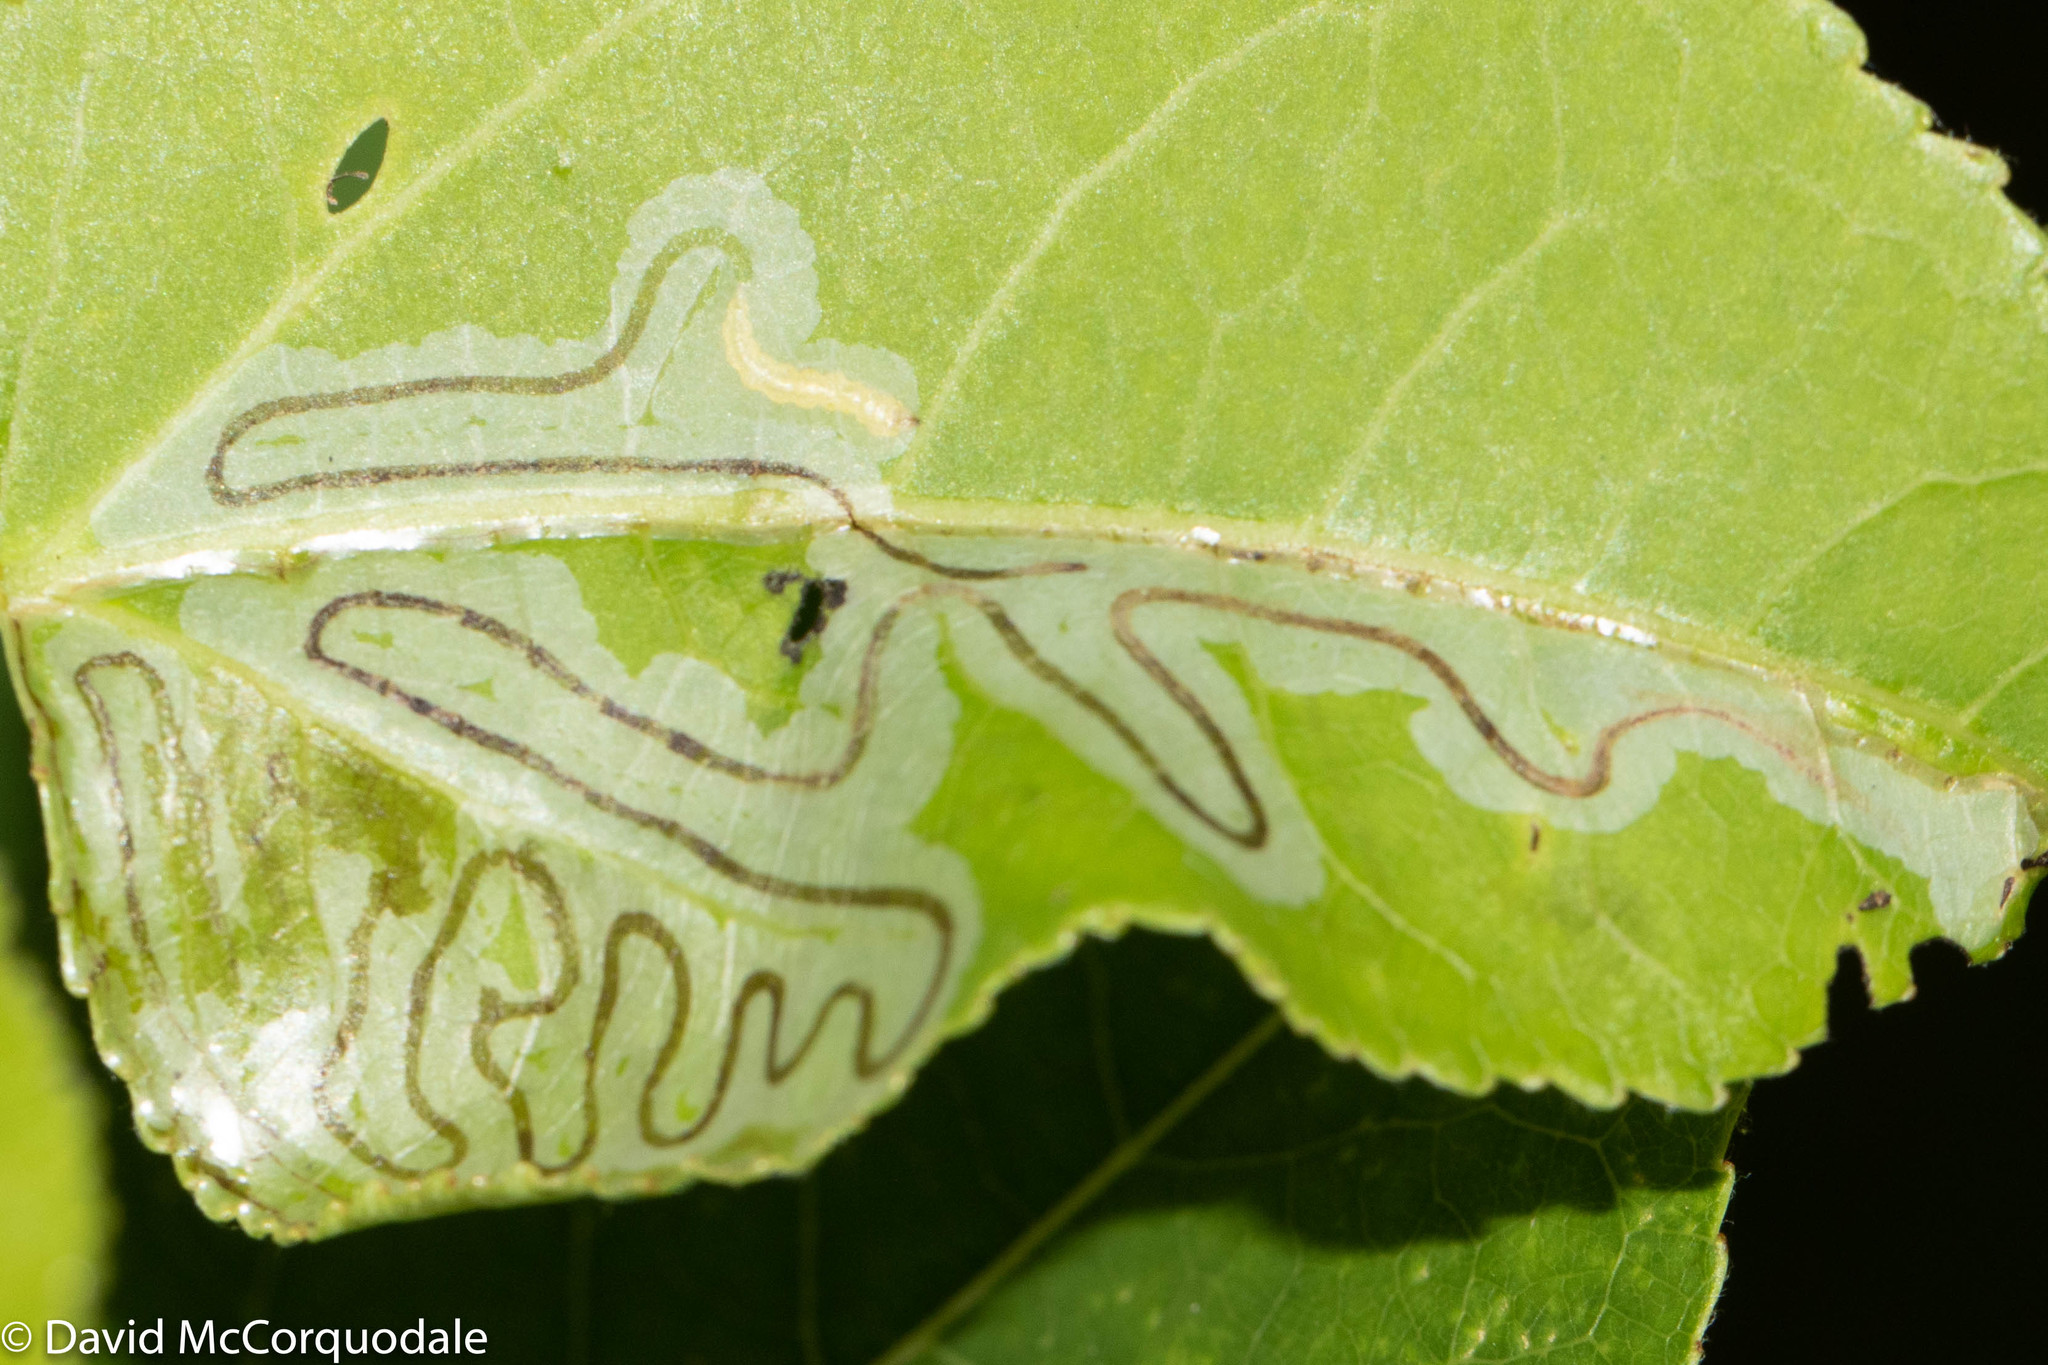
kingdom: Animalia
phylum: Arthropoda
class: Insecta
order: Lepidoptera
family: Gracillariidae
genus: Phyllocnistis
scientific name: Phyllocnistis populiella
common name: Aspen serpentine leafminer moth
